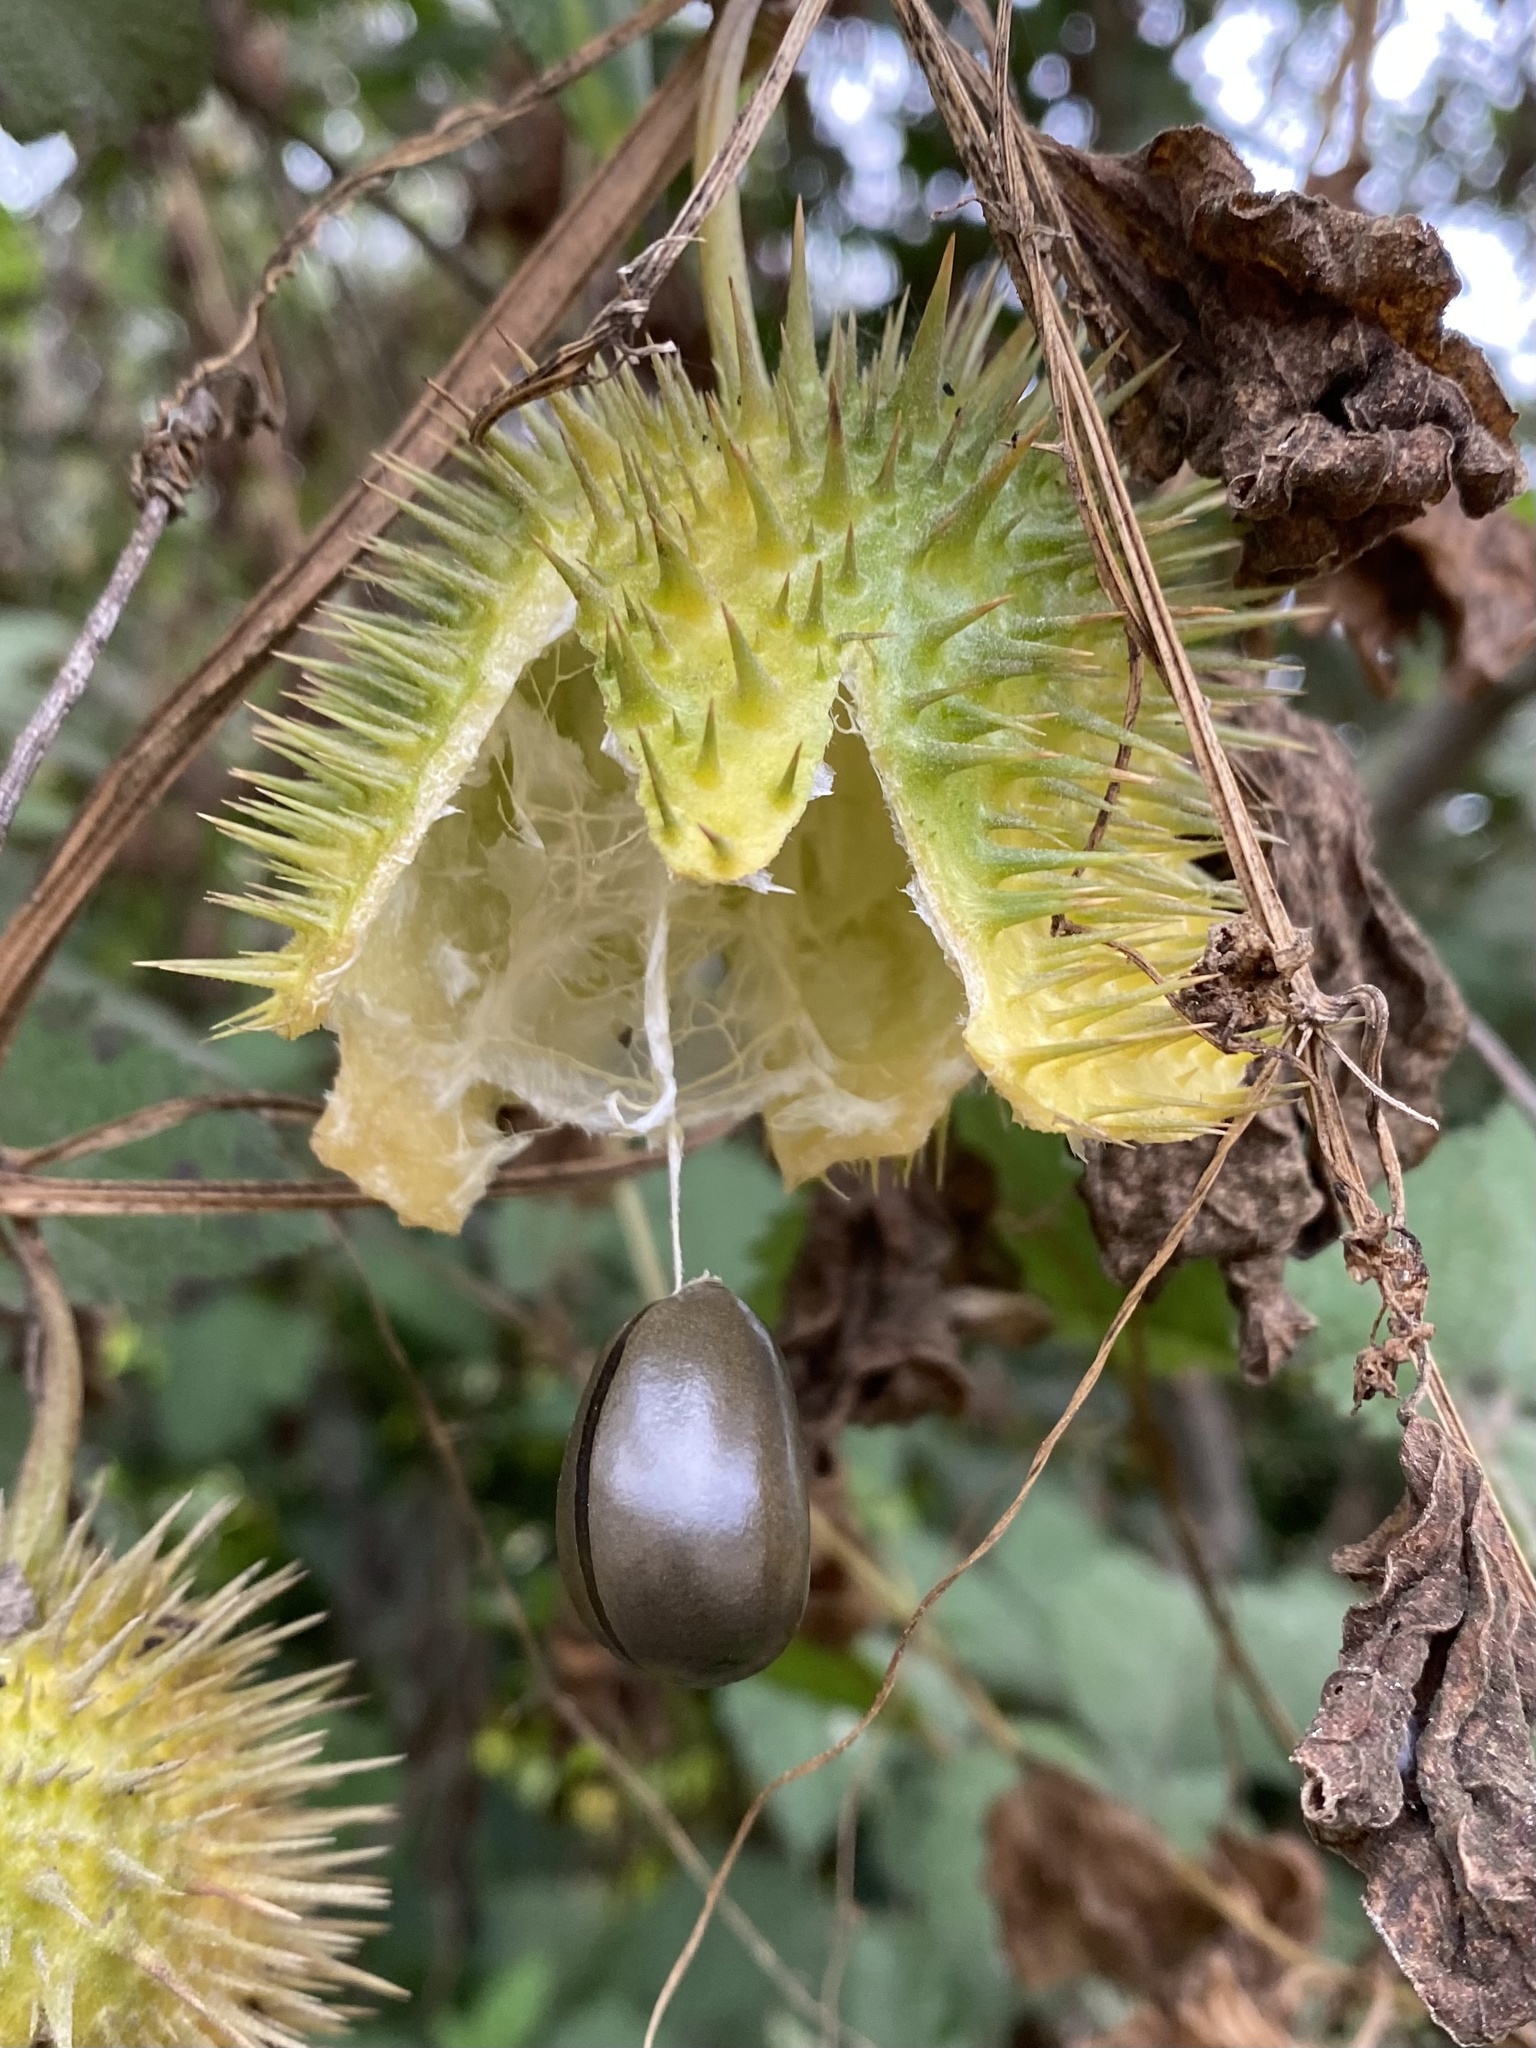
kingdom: Plantae
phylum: Tracheophyta
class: Magnoliopsida
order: Cucurbitales
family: Cucurbitaceae
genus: Marah
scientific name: Marah fabacea
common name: California manroot
